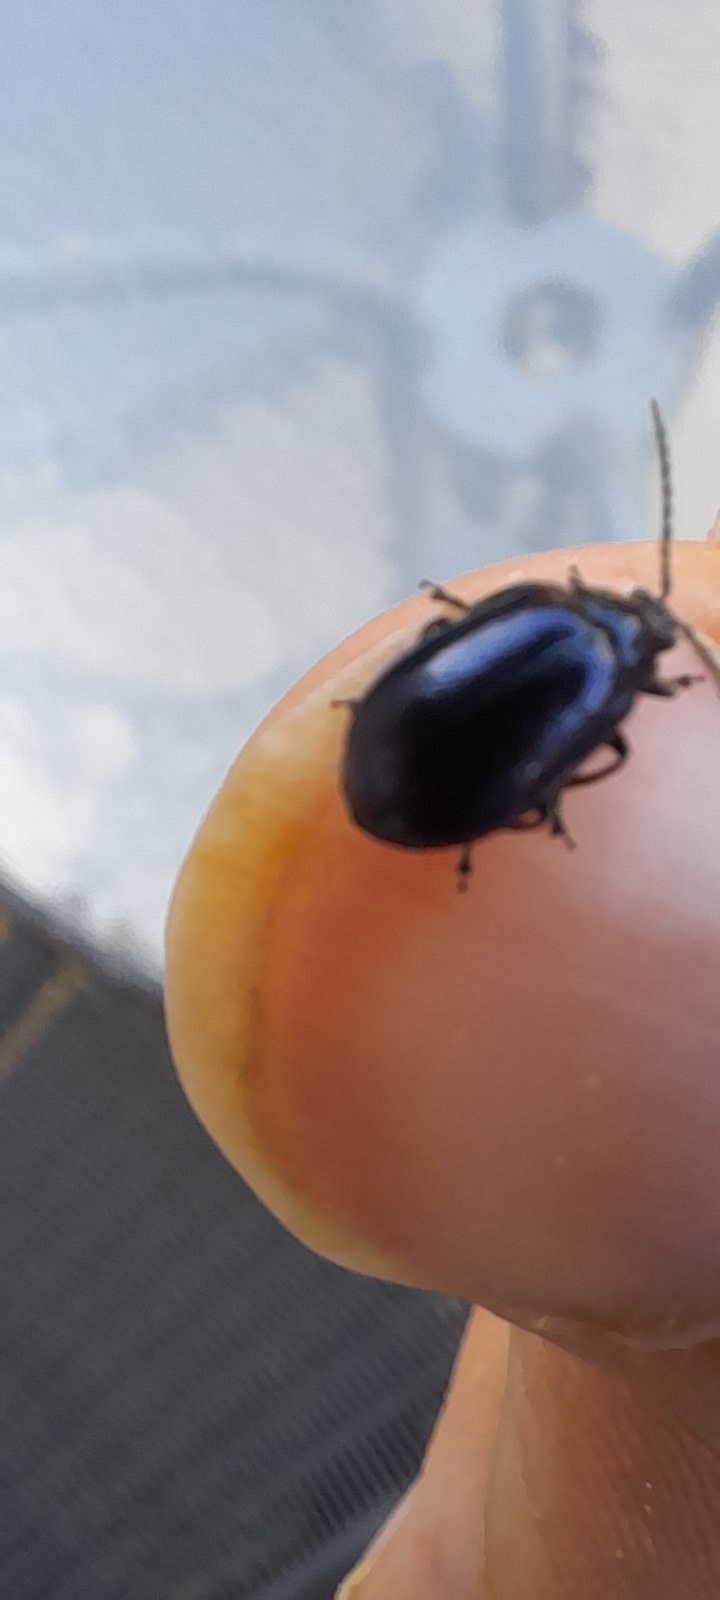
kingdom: Animalia
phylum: Arthropoda
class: Insecta
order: Coleoptera
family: Chrysomelidae
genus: Agelastica
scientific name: Agelastica alni
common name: Alder leaf beetle
